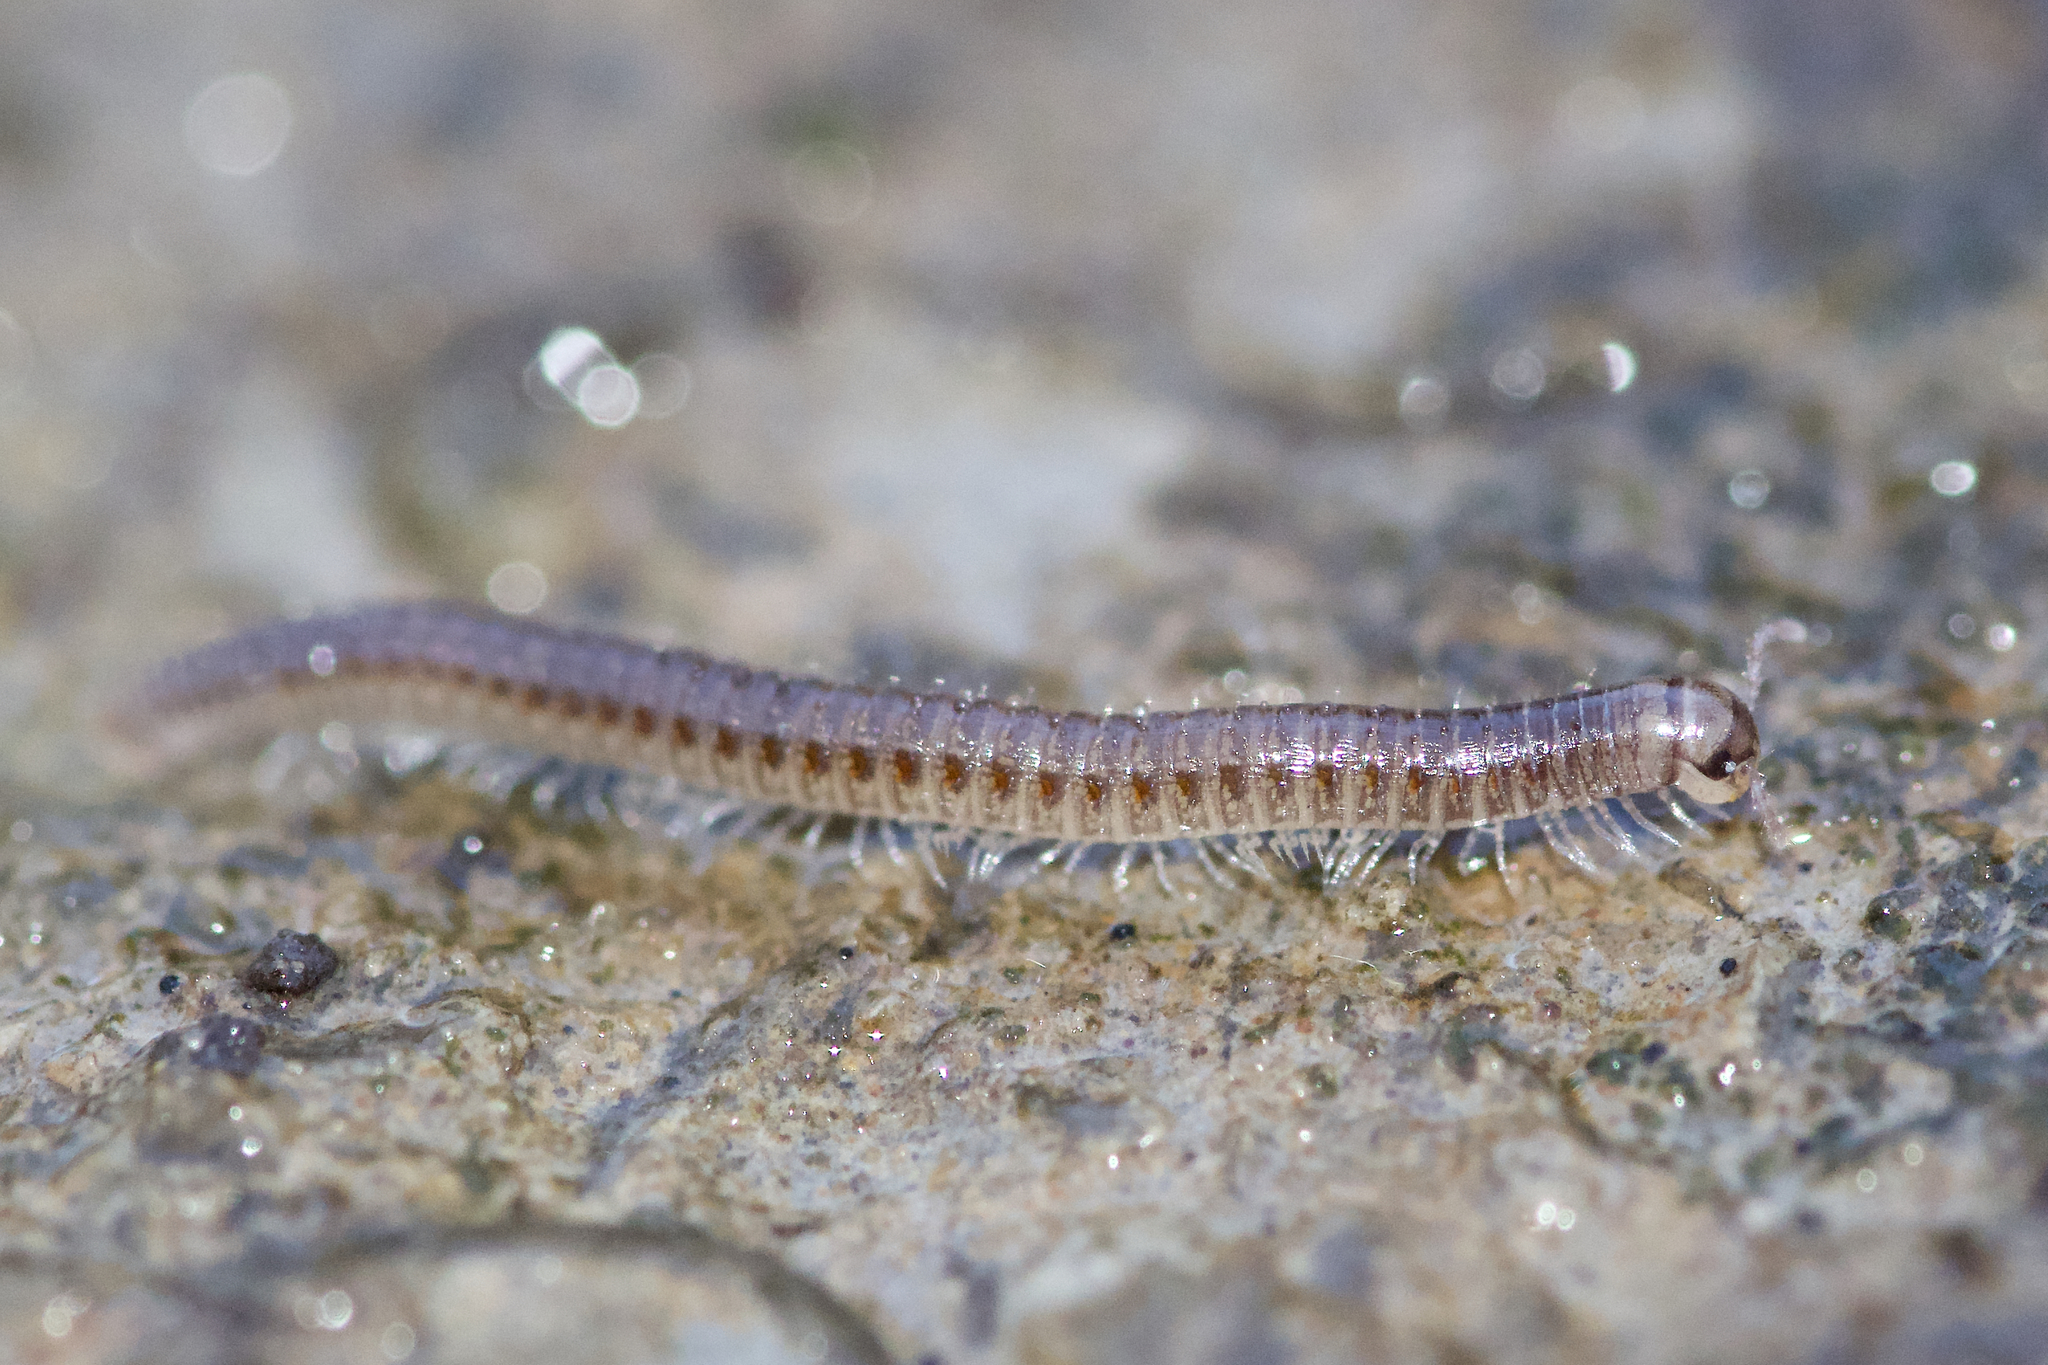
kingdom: Animalia
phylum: Arthropoda
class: Diplopoda
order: Julida
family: Julidae
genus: Ophyiulus
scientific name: Ophyiulus pilosus
